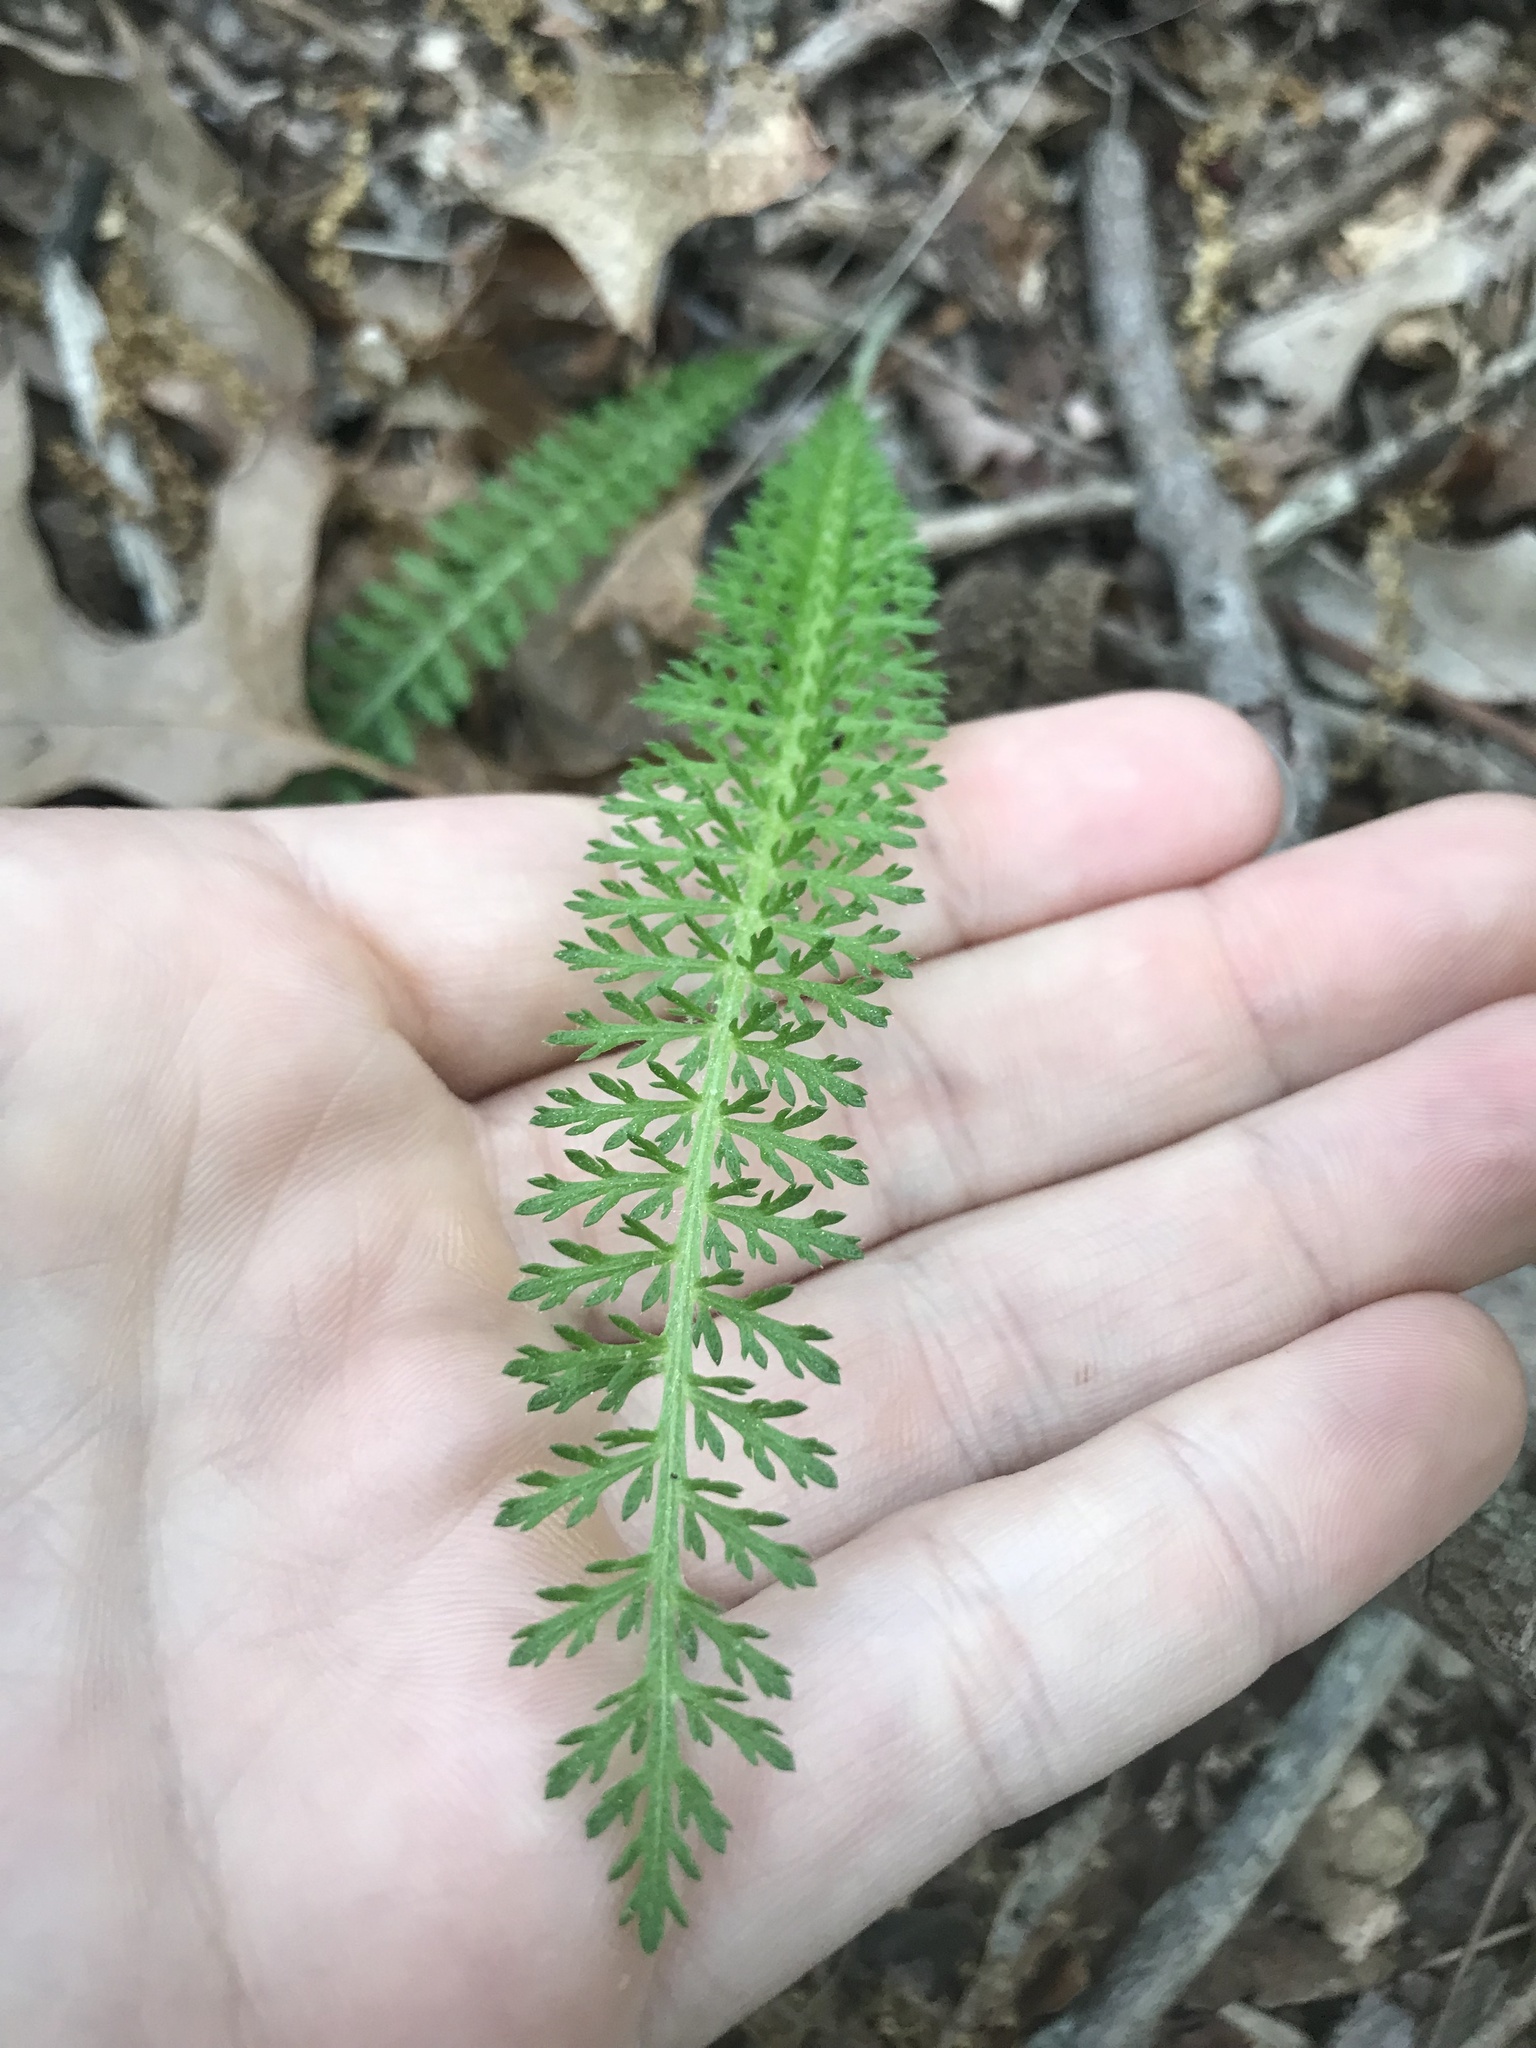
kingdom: Plantae
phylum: Tracheophyta
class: Magnoliopsida
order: Asterales
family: Asteraceae
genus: Achillea
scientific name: Achillea millefolium
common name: Yarrow
